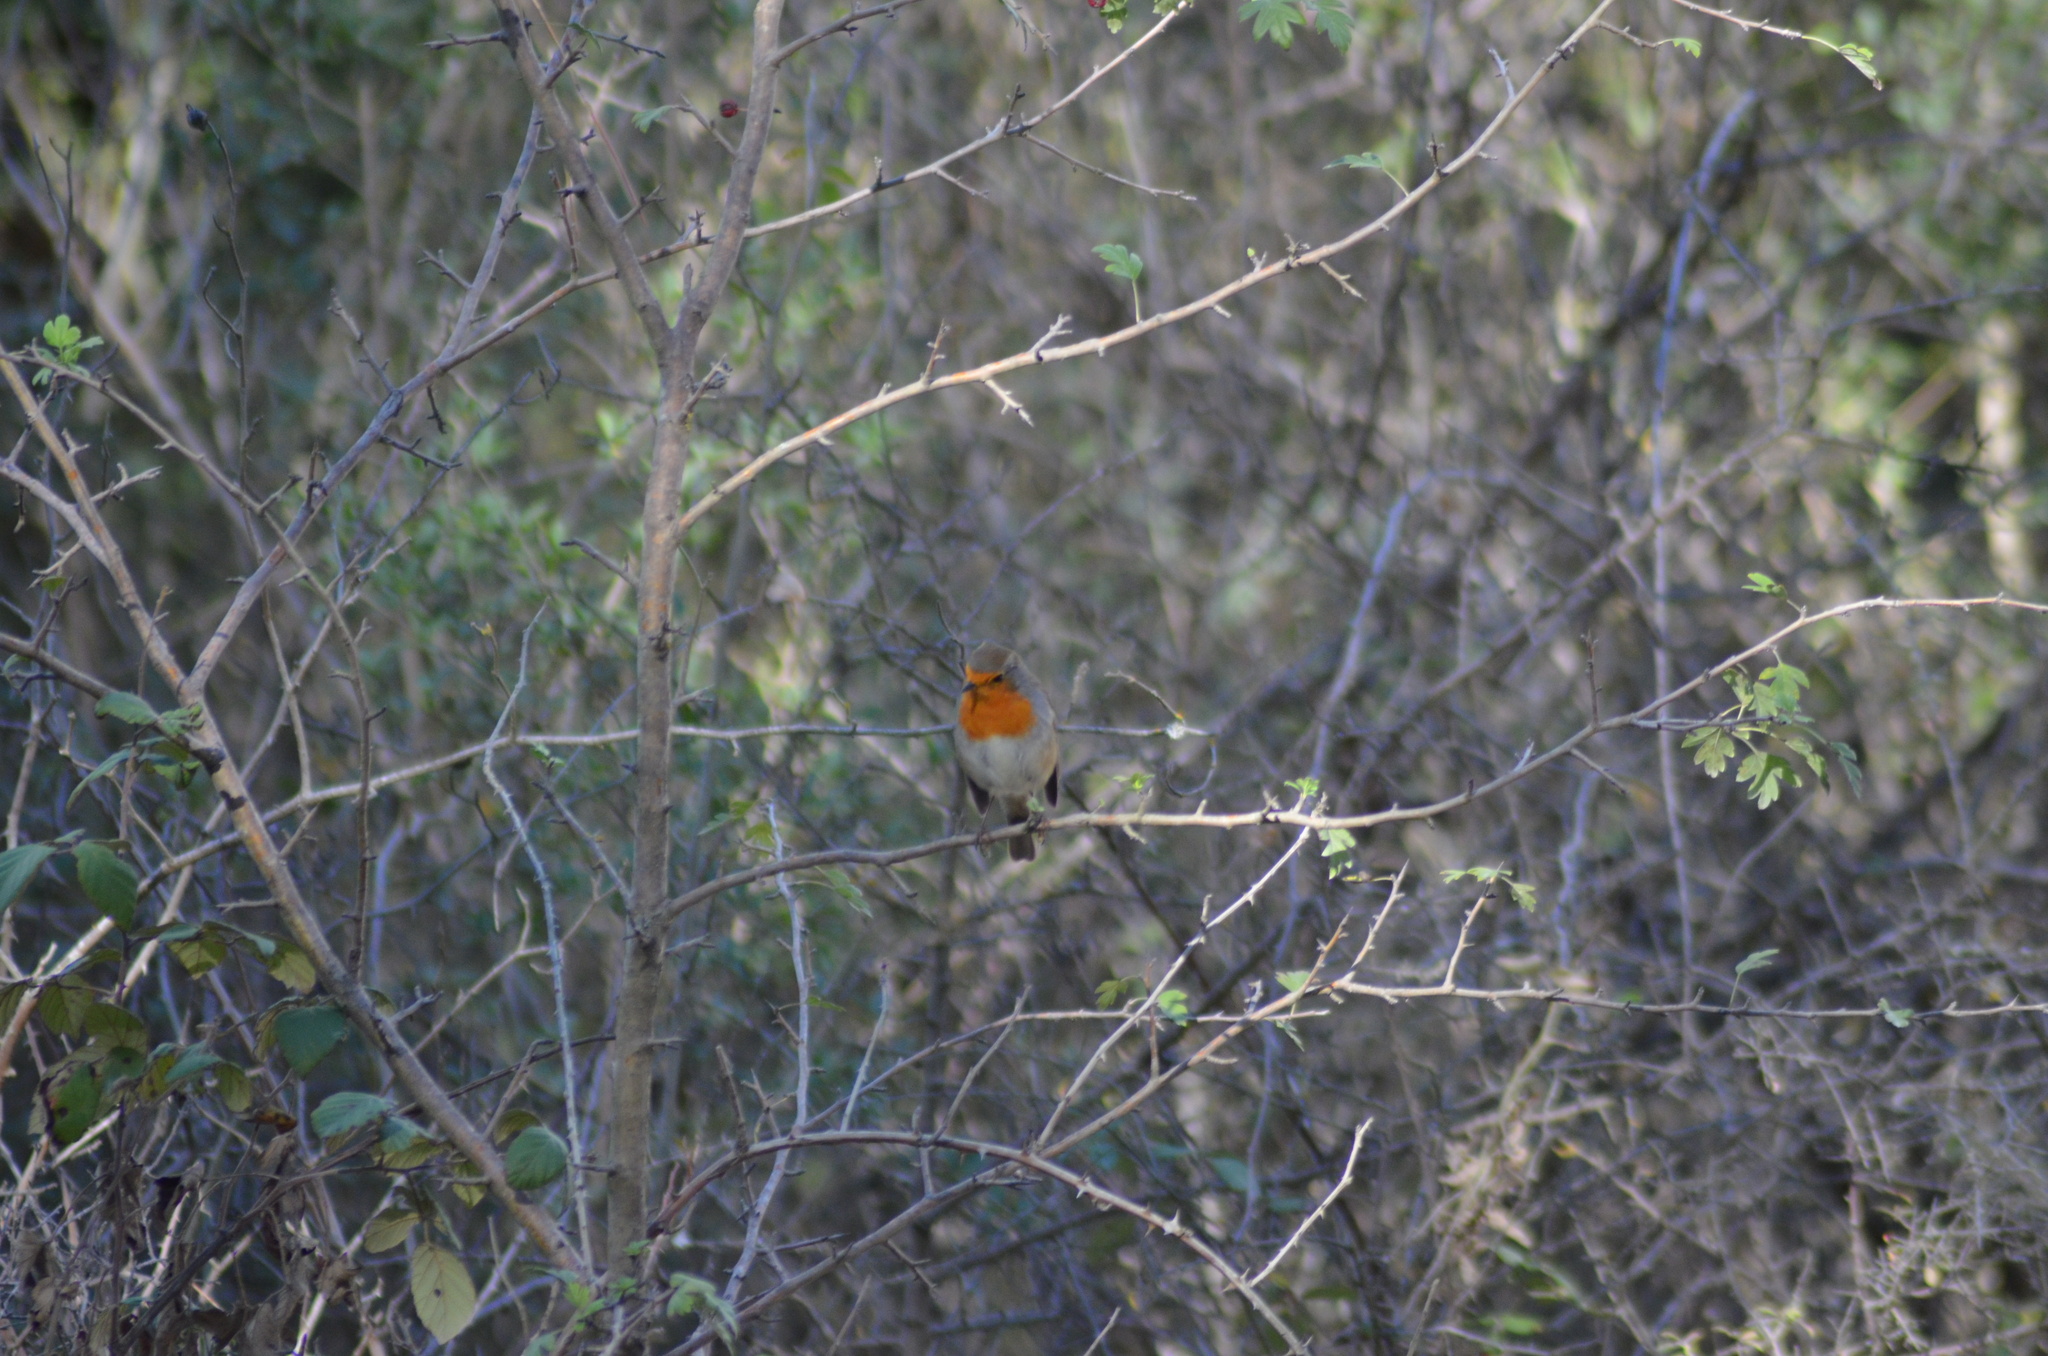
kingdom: Animalia
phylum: Chordata
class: Aves
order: Passeriformes
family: Muscicapidae
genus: Erithacus
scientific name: Erithacus rubecula
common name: European robin
